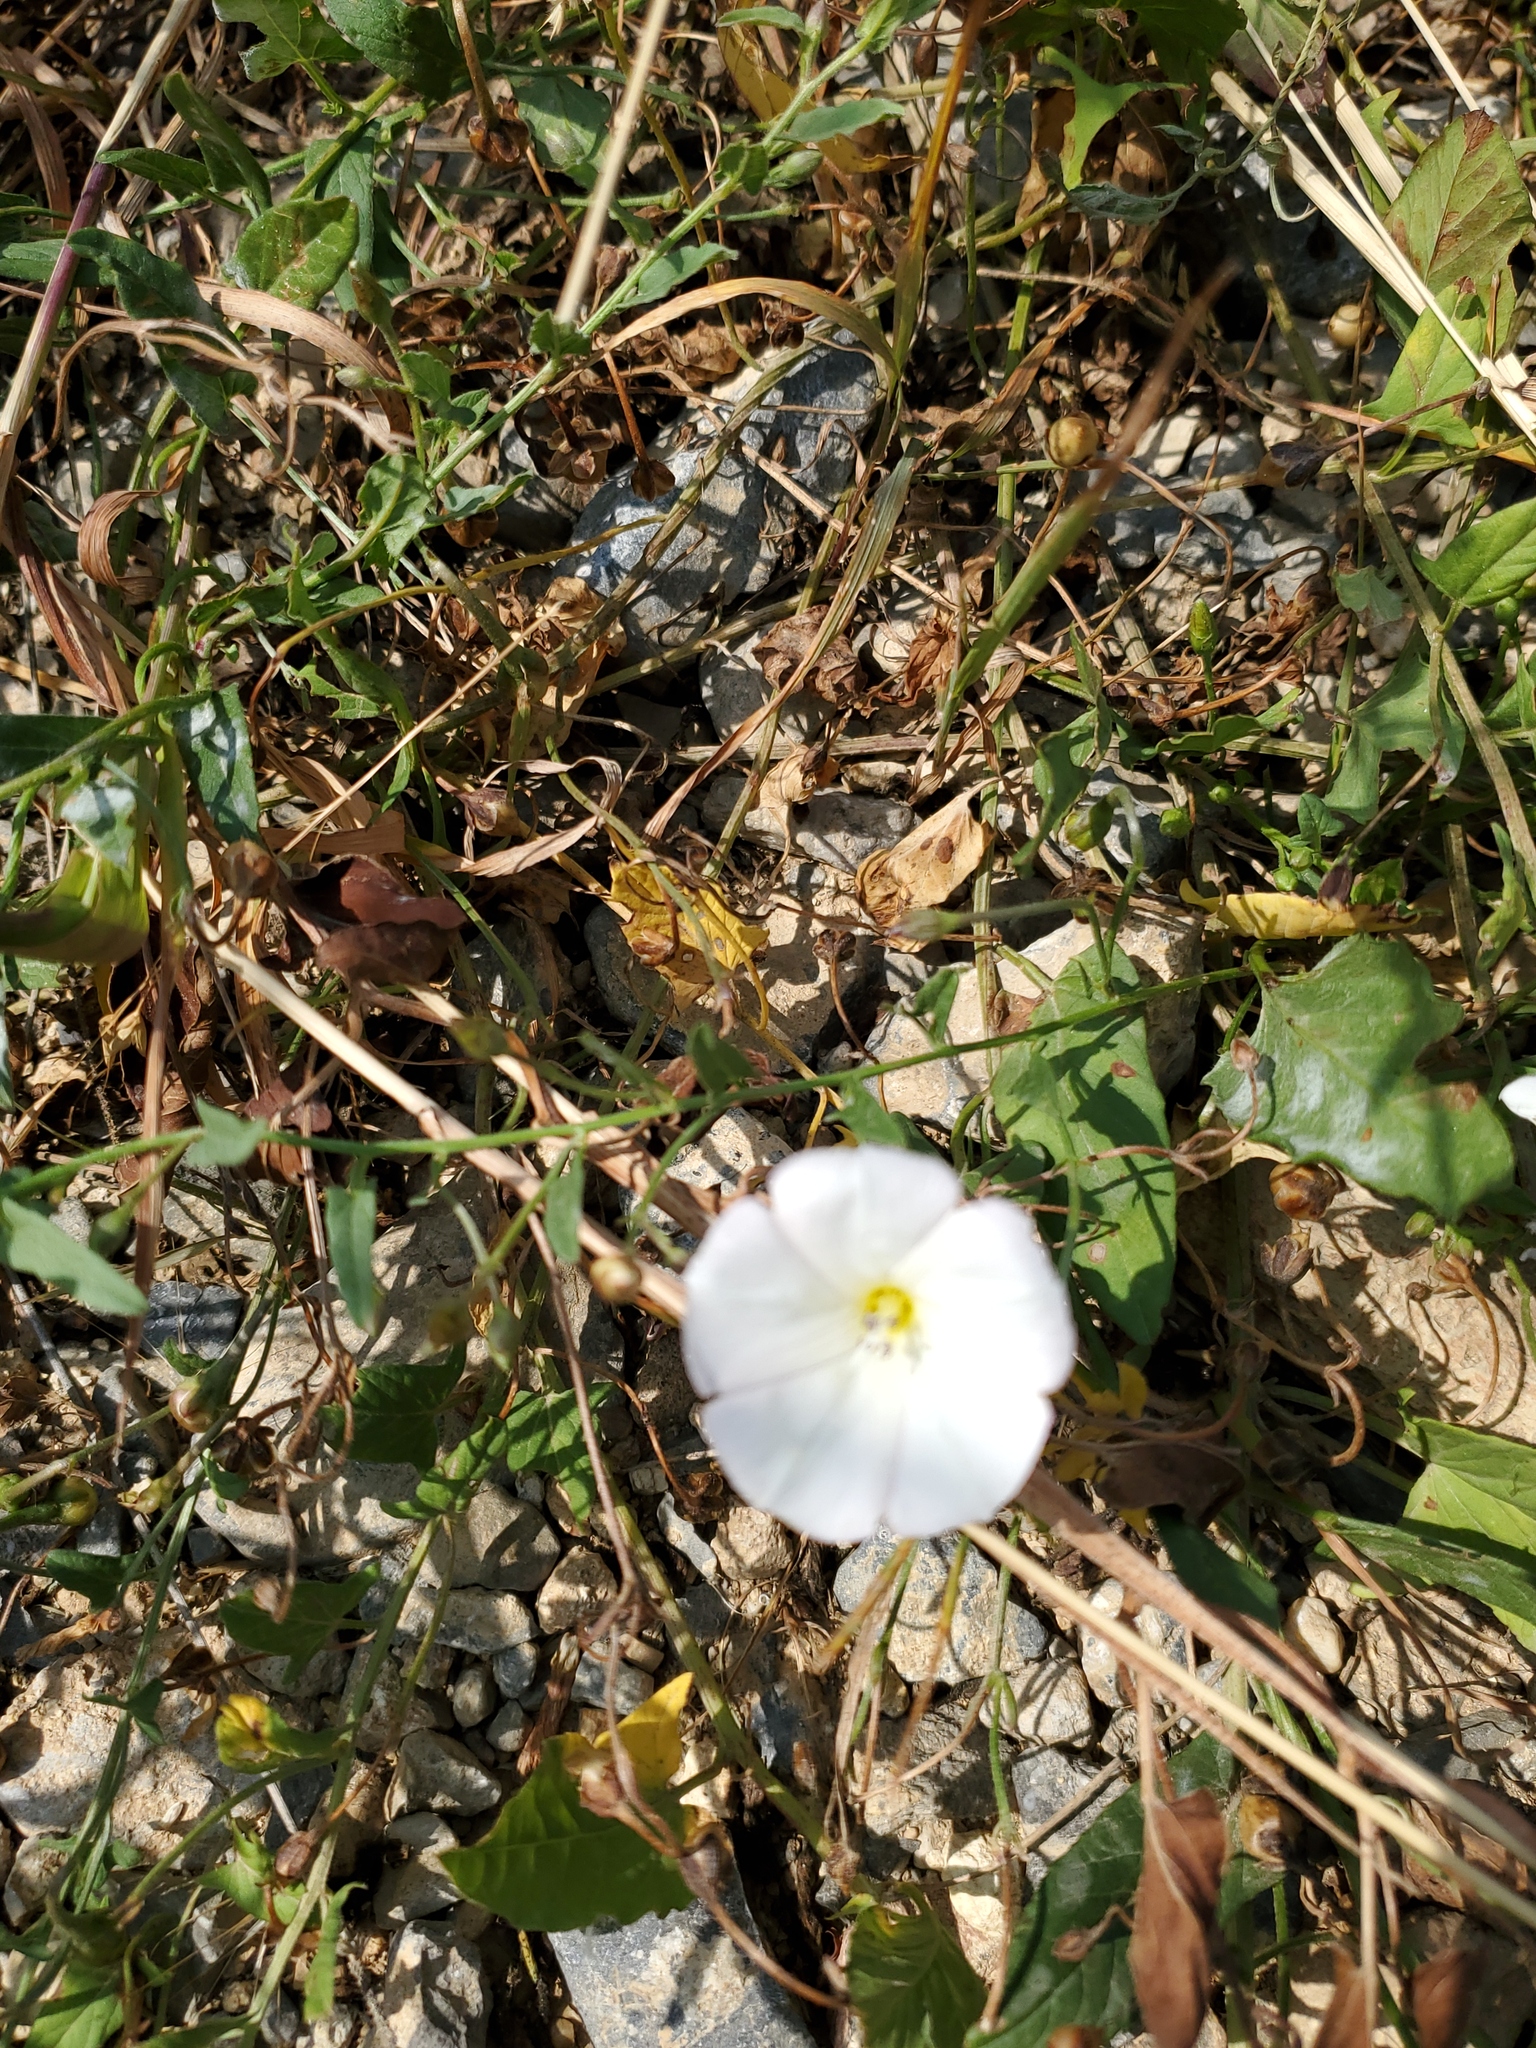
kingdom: Plantae
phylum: Tracheophyta
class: Magnoliopsida
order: Solanales
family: Convolvulaceae
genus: Convolvulus
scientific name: Convolvulus arvensis
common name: Field bindweed
